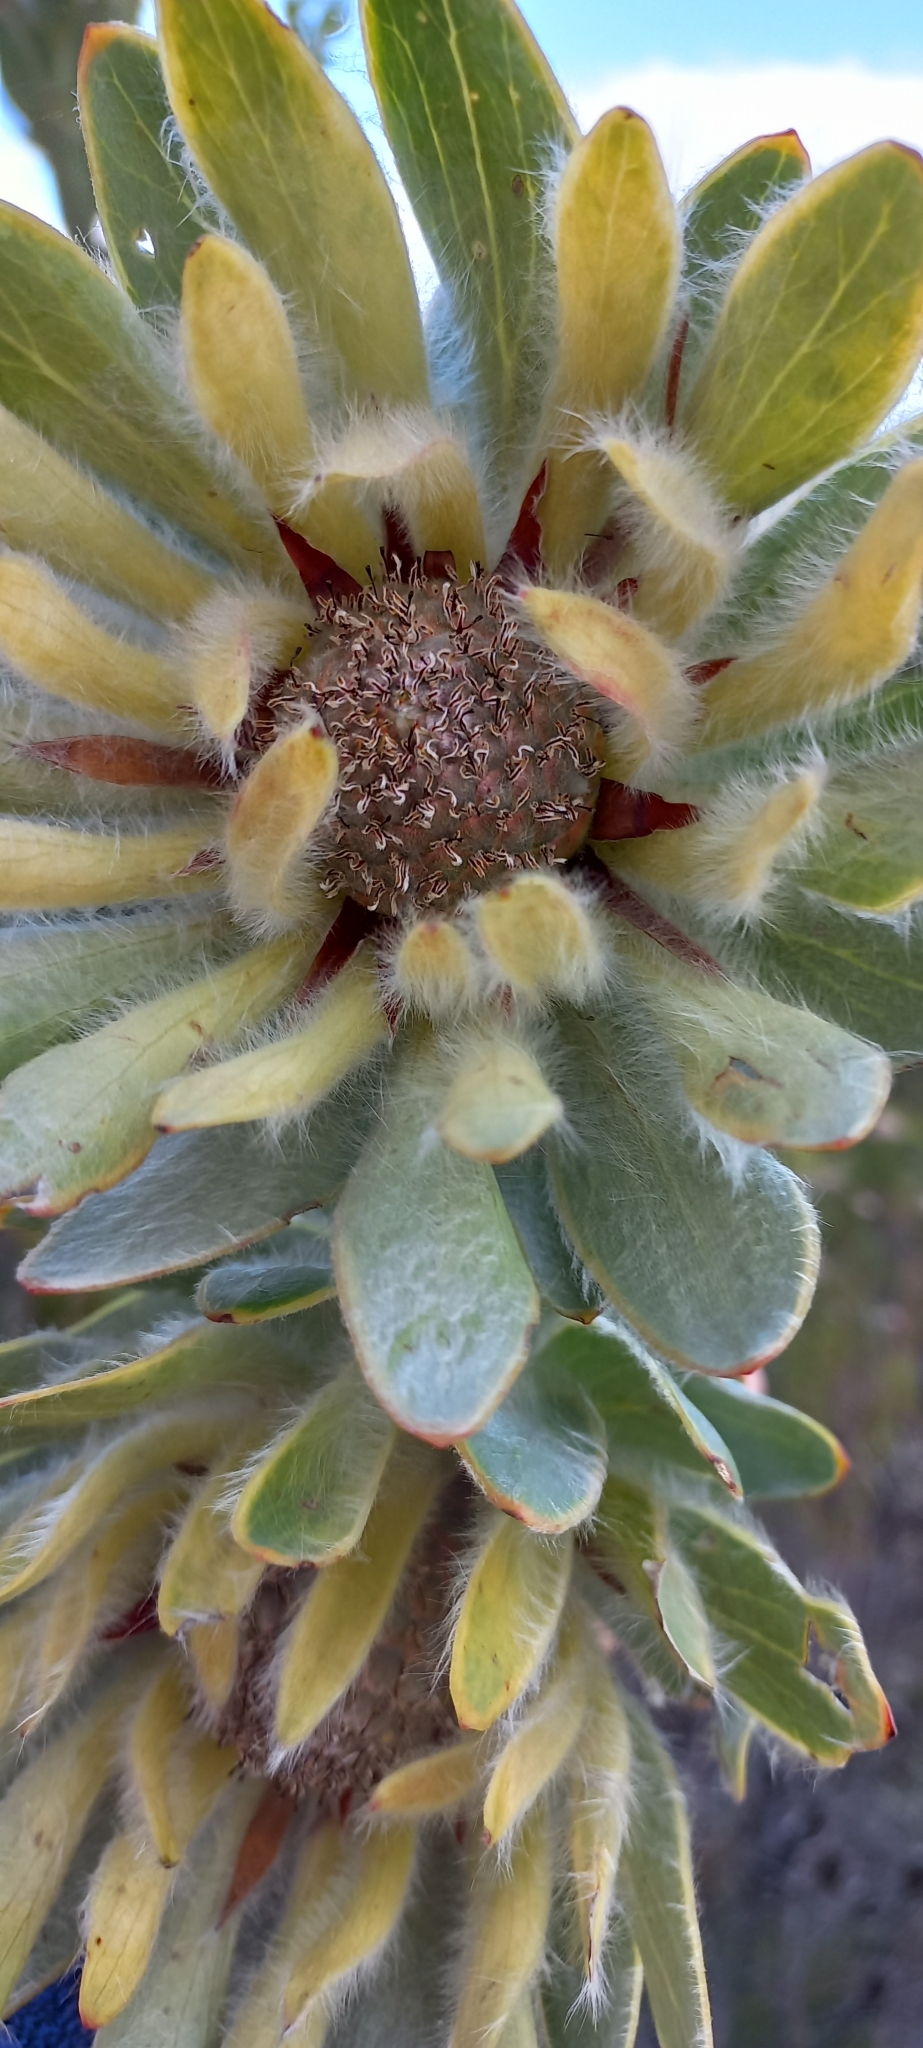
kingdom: Plantae
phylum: Tracheophyta
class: Magnoliopsida
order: Proteales
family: Proteaceae
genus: Leucadendron
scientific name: Leucadendron nervosum
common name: Silky-ruff conebush
